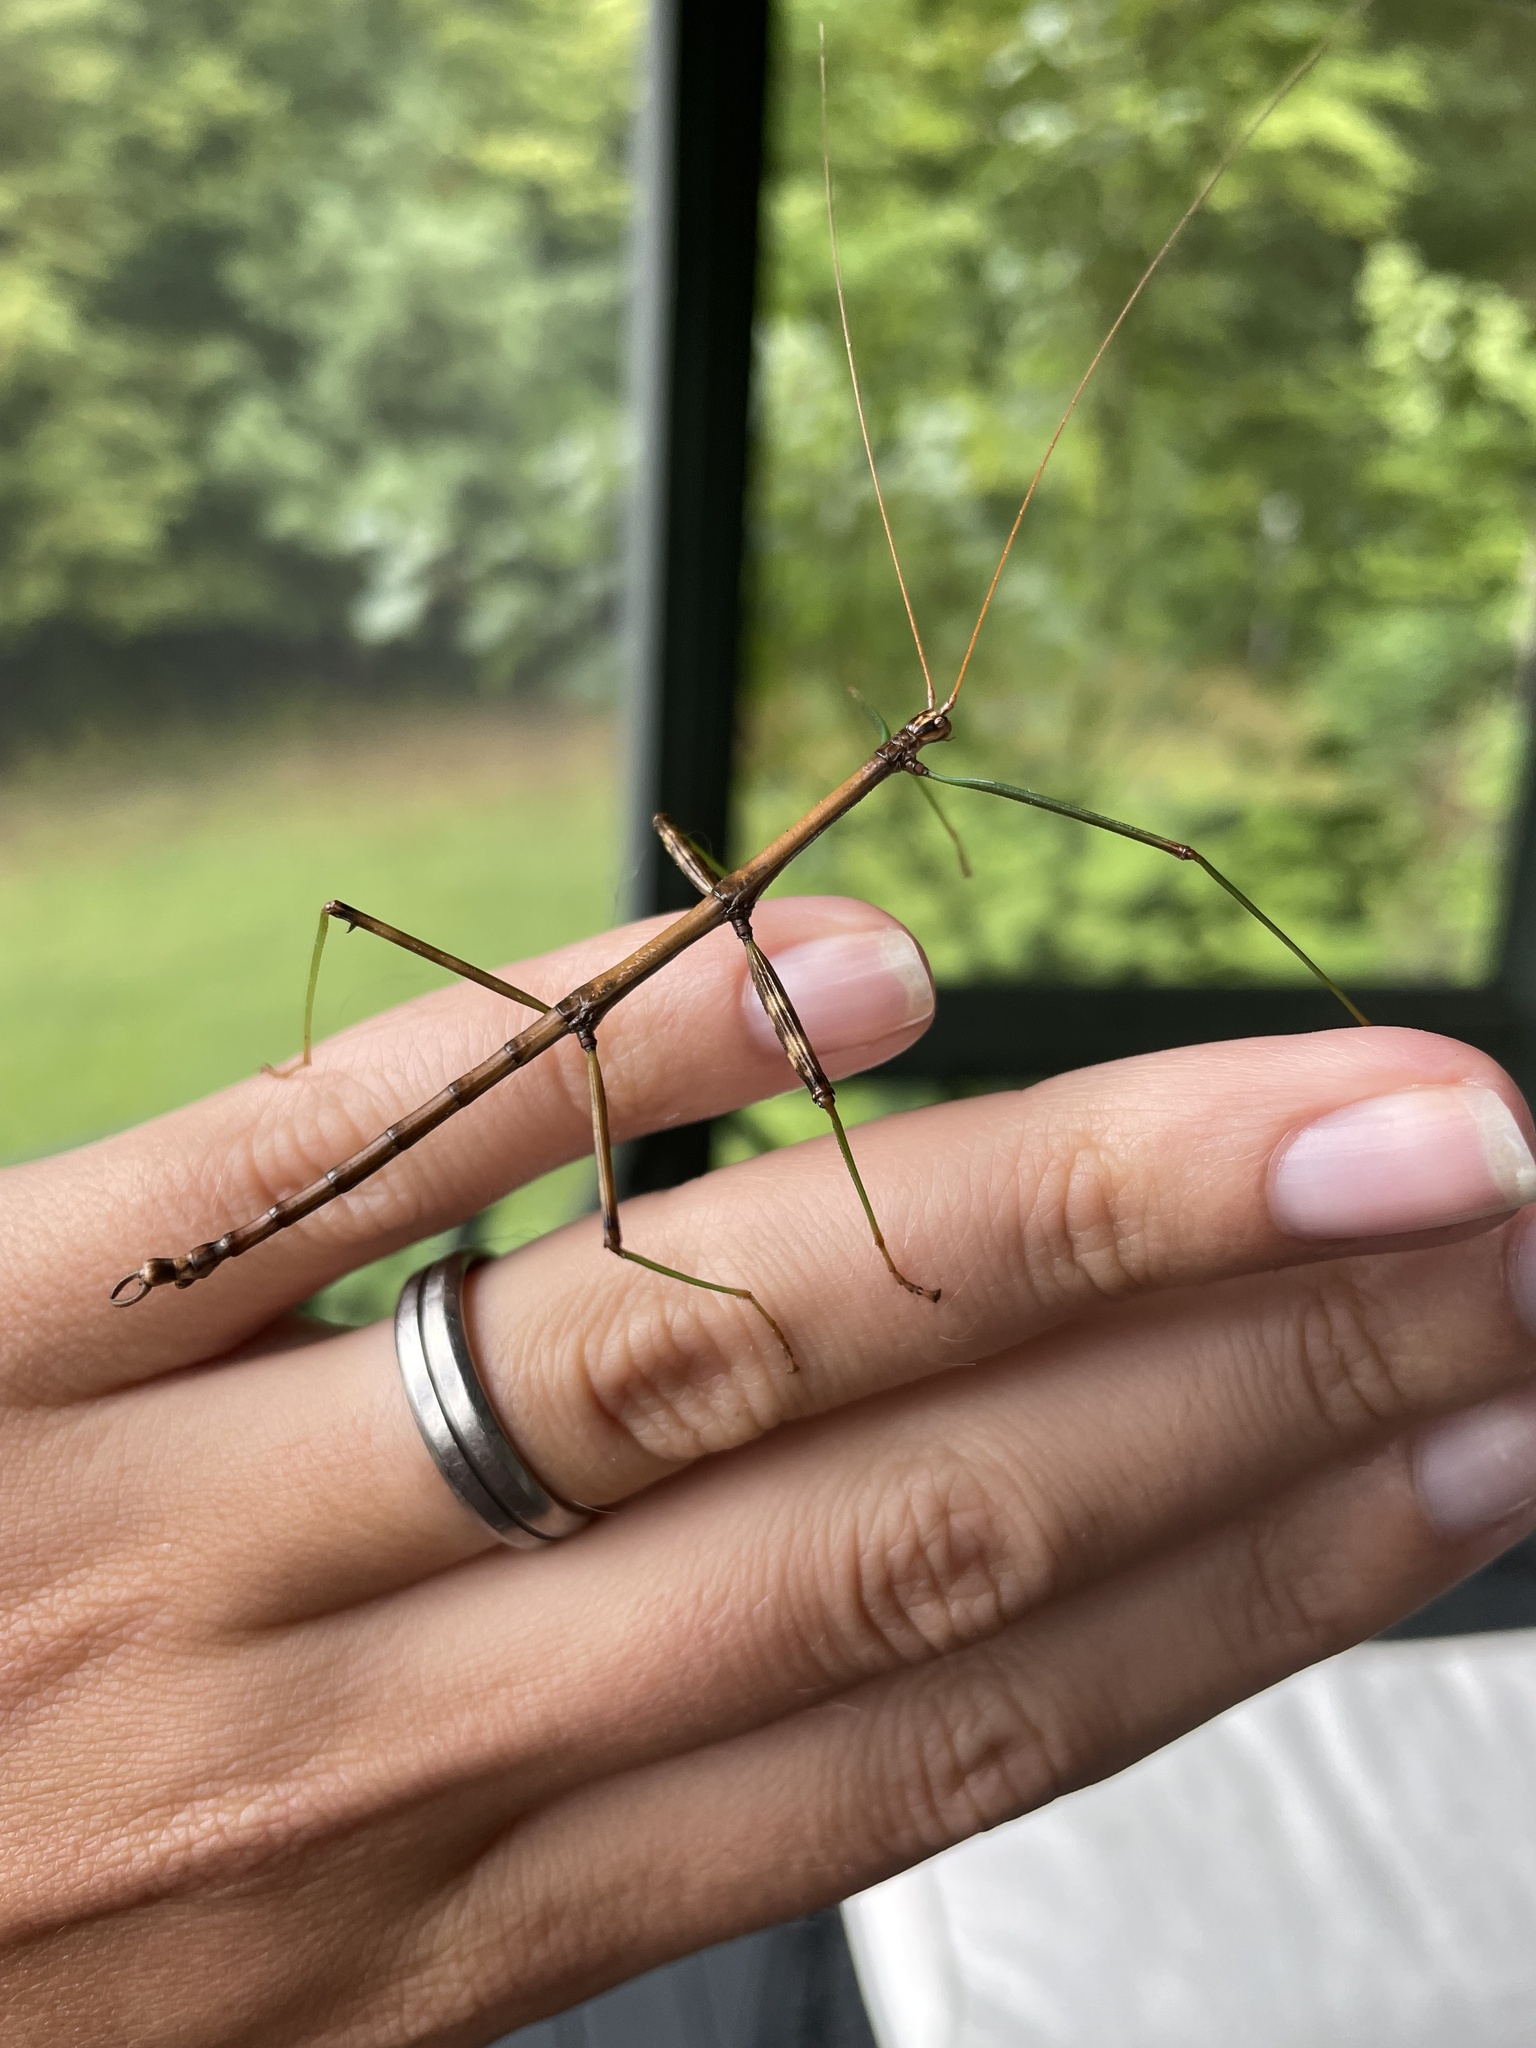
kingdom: Animalia
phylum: Arthropoda
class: Insecta
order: Phasmida
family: Diapheromeridae
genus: Diapheromera
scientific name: Diapheromera femorata
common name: Common american walkingstick
